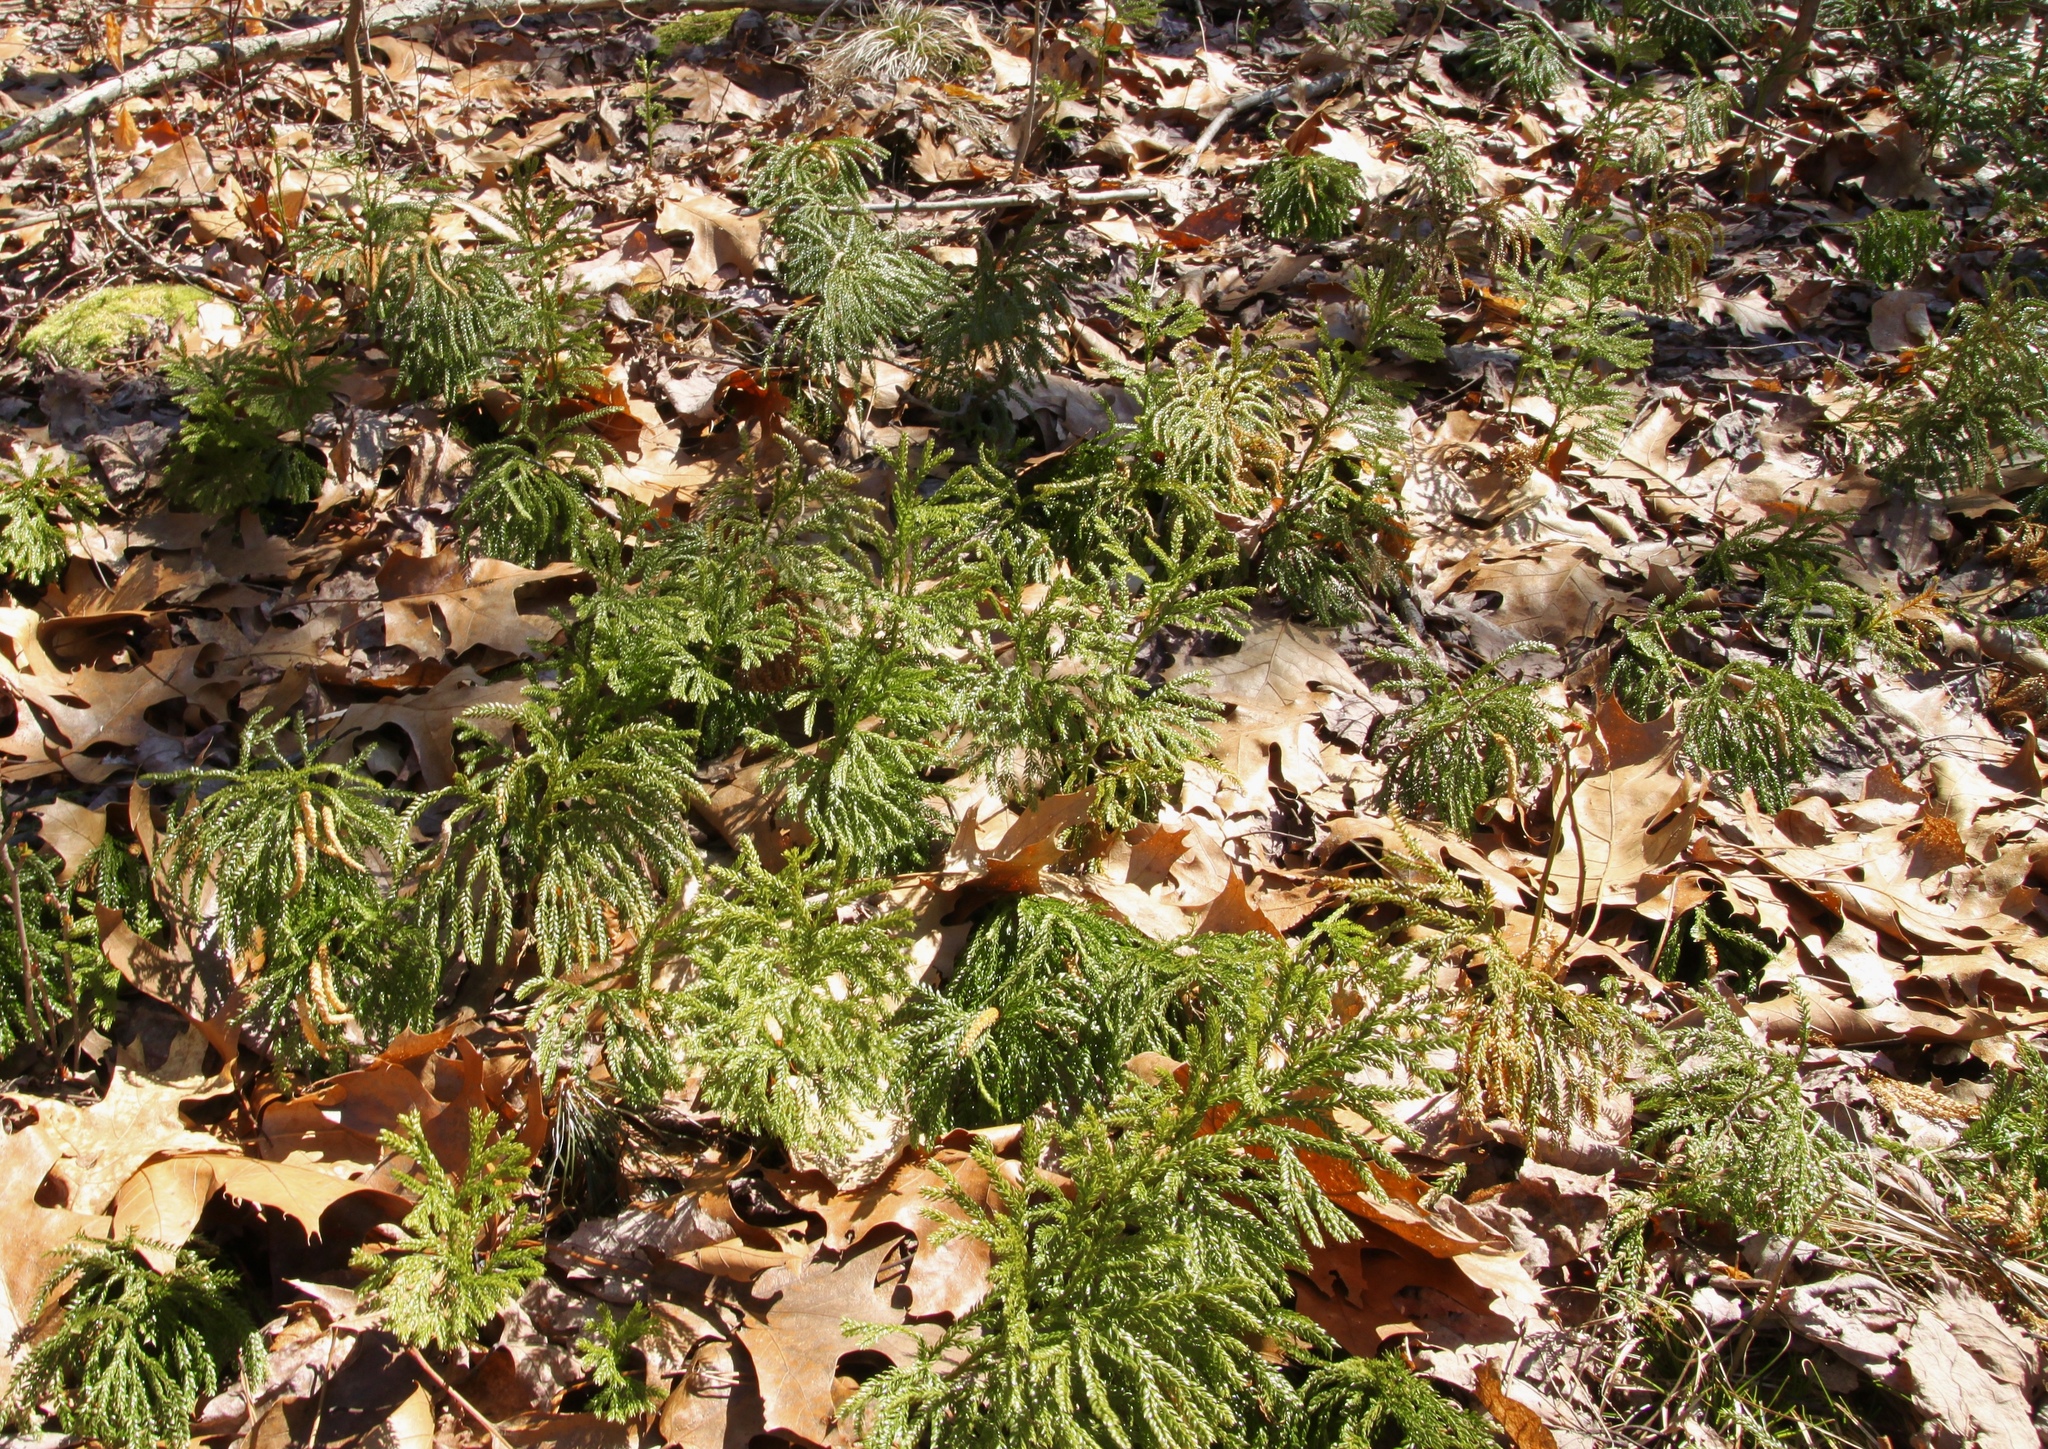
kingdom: Plantae
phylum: Tracheophyta
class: Lycopodiopsida
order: Lycopodiales
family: Lycopodiaceae
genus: Dendrolycopodium
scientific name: Dendrolycopodium obscurum
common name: Common ground-pine
